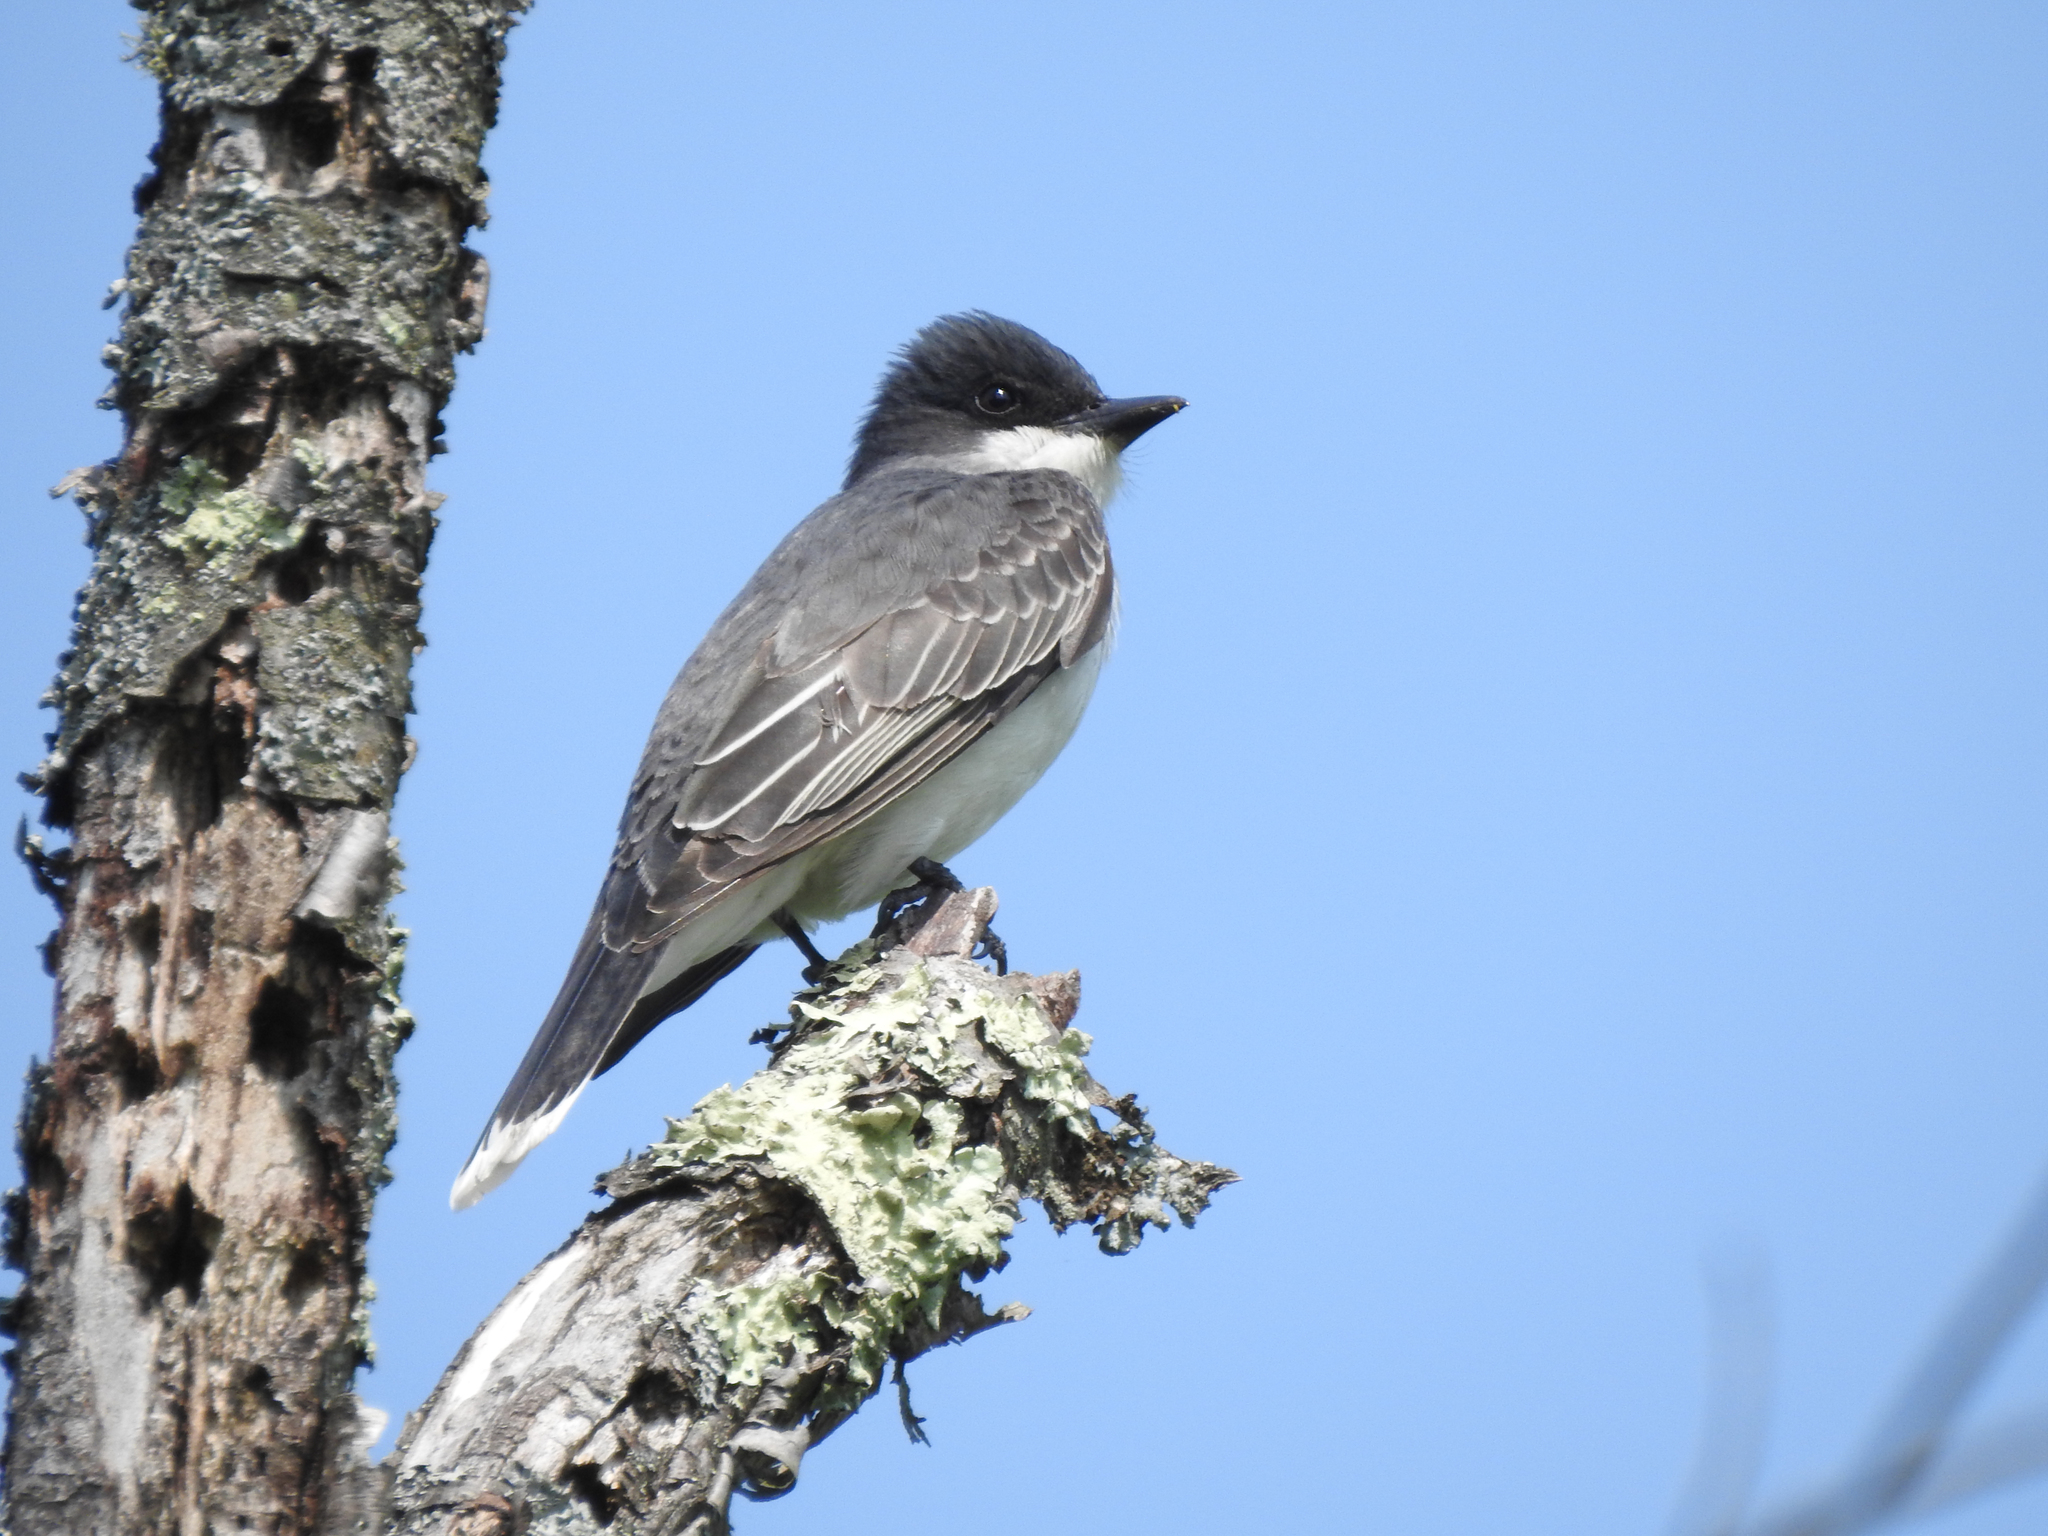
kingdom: Animalia
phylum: Chordata
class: Aves
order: Passeriformes
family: Tyrannidae
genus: Tyrannus
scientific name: Tyrannus tyrannus
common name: Eastern kingbird
